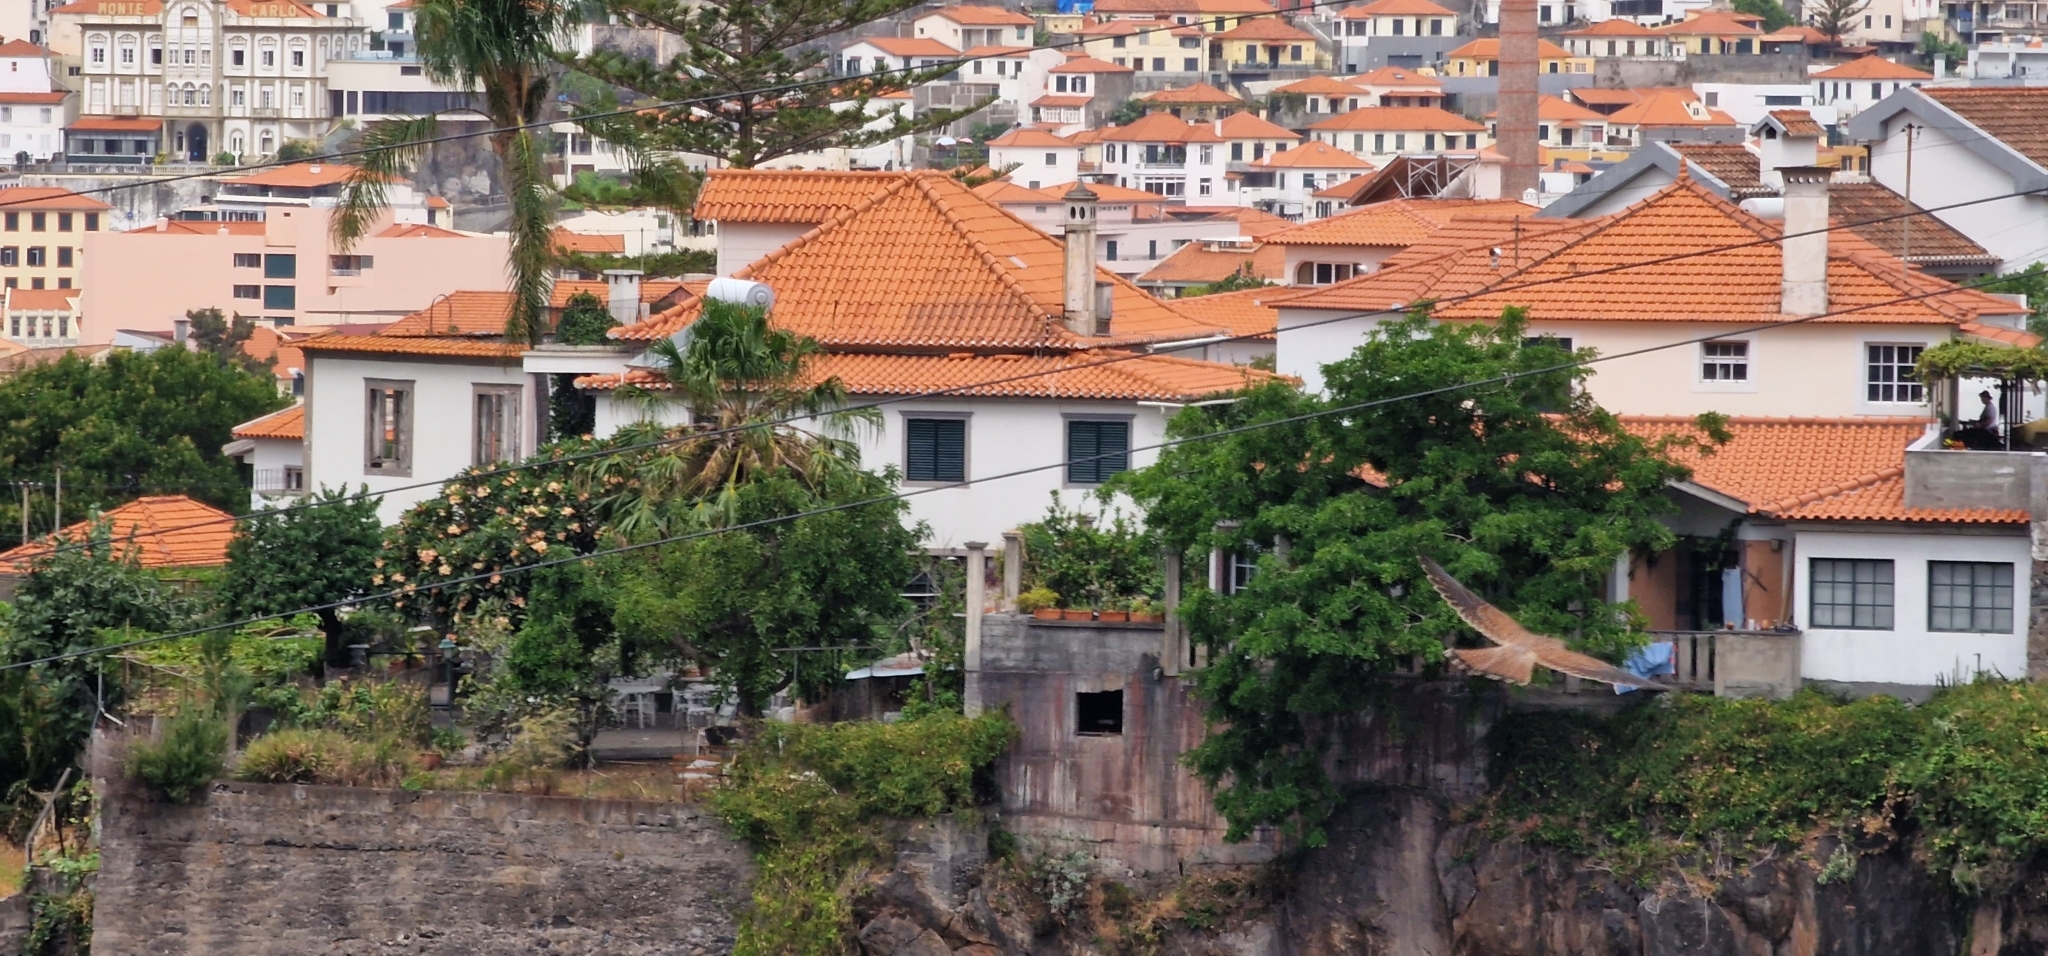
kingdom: Animalia
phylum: Chordata
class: Aves
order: Falconiformes
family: Falconidae
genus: Falco
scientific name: Falco tinnunculus
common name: Common kestrel
